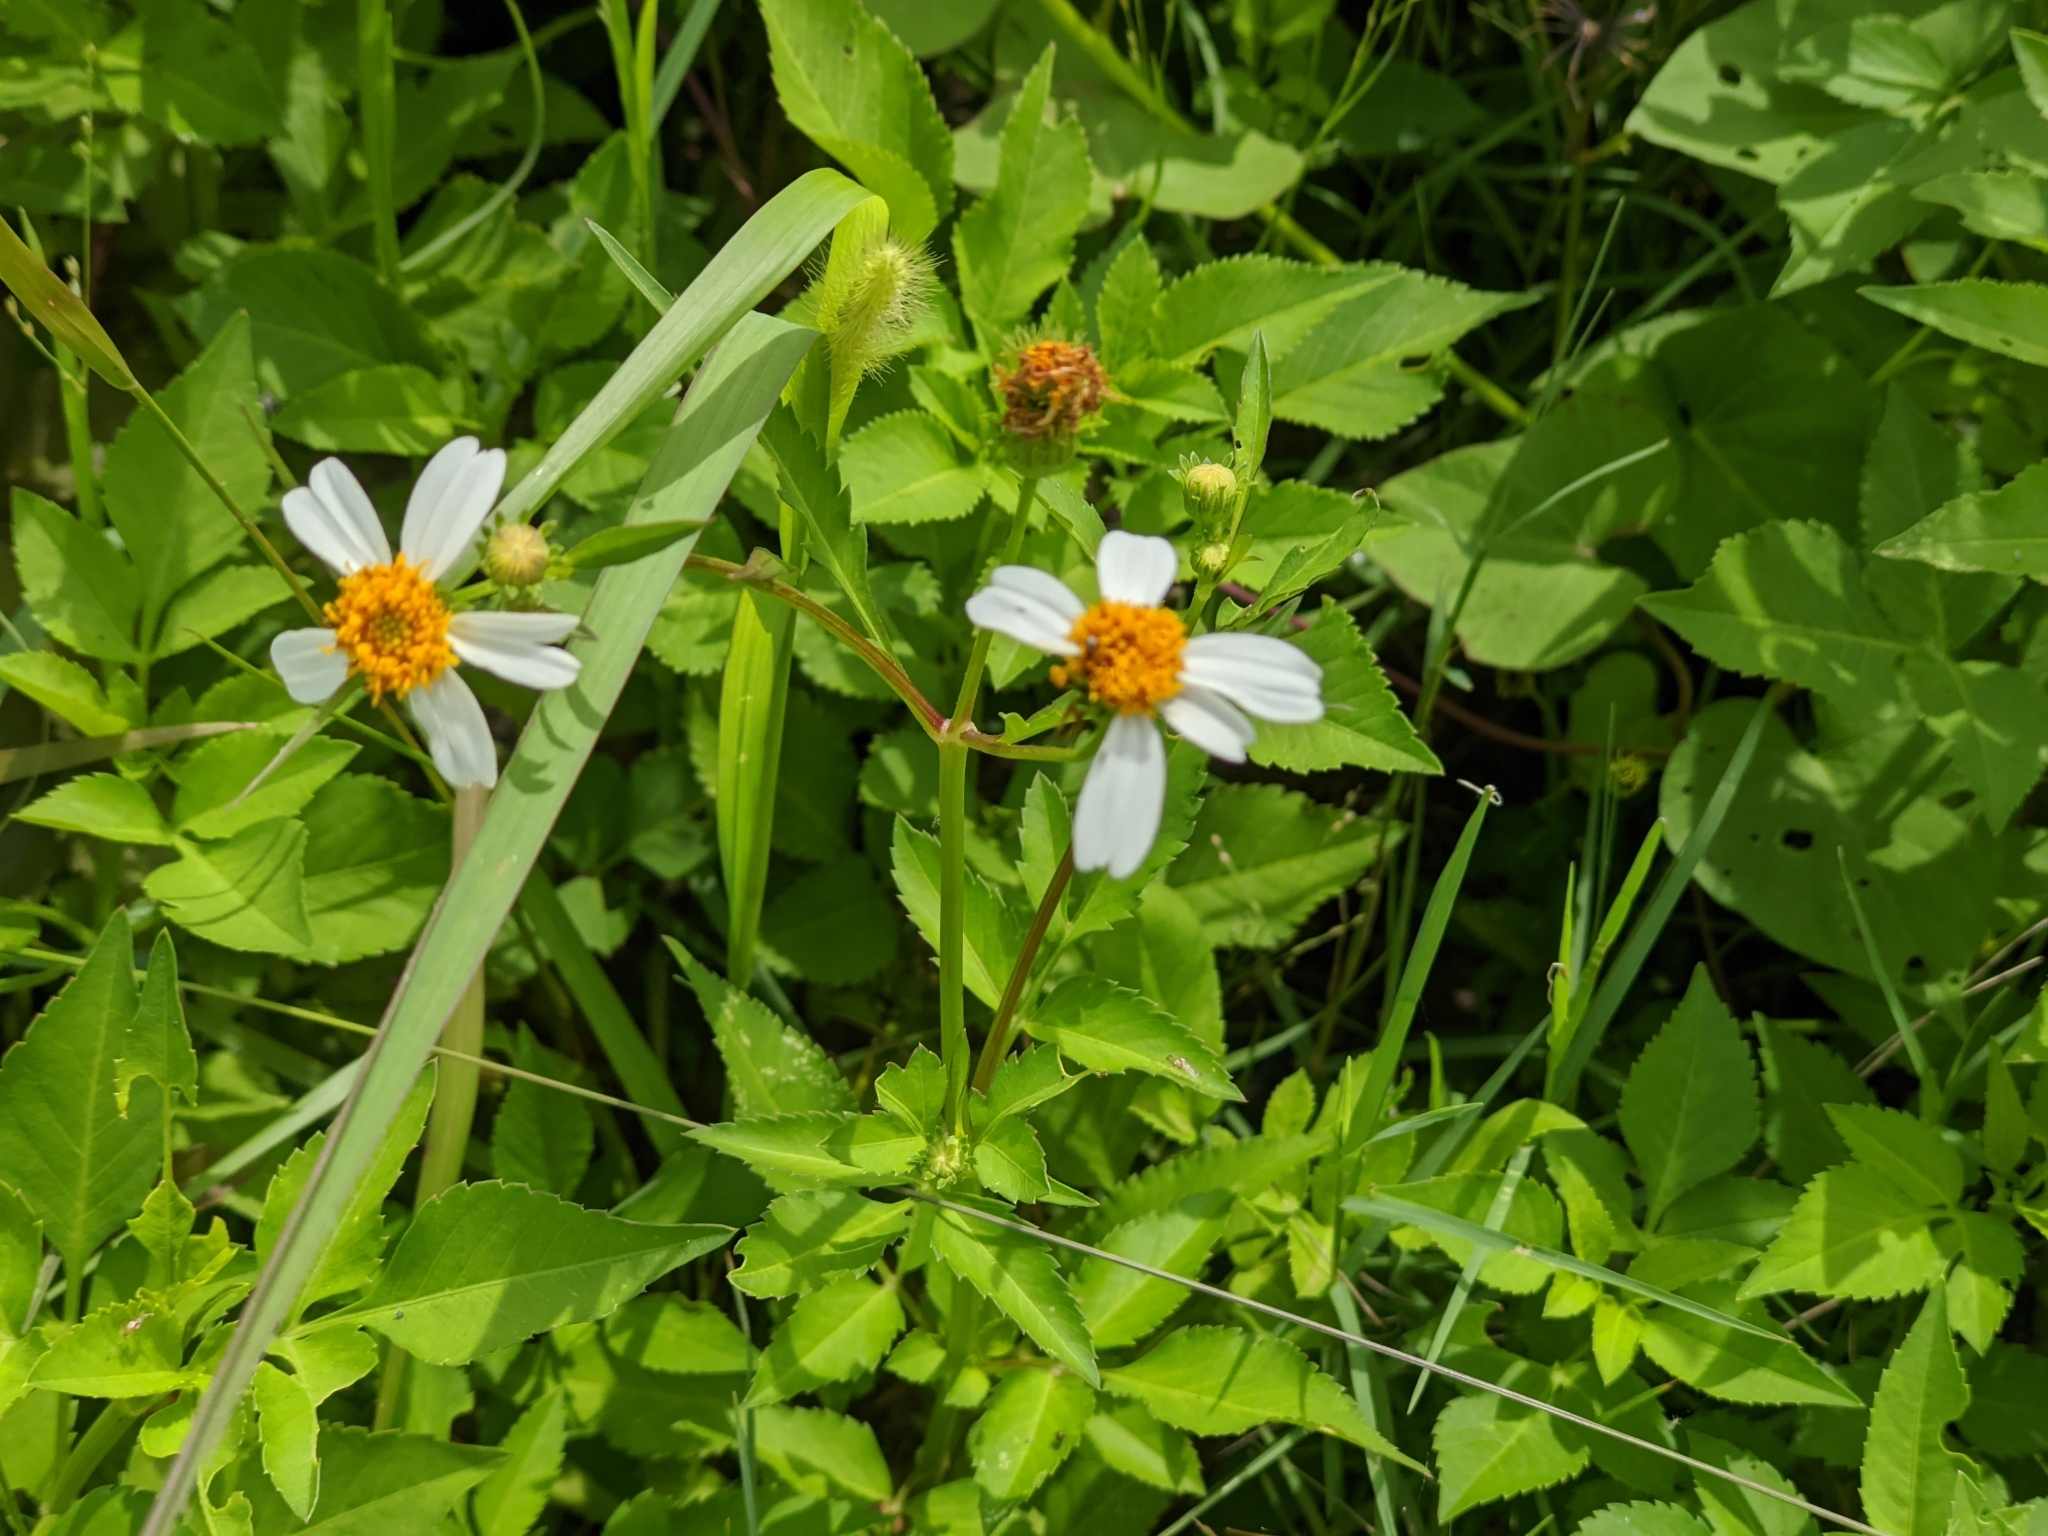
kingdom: Plantae
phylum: Tracheophyta
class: Magnoliopsida
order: Asterales
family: Asteraceae
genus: Bidens
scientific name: Bidens alba
